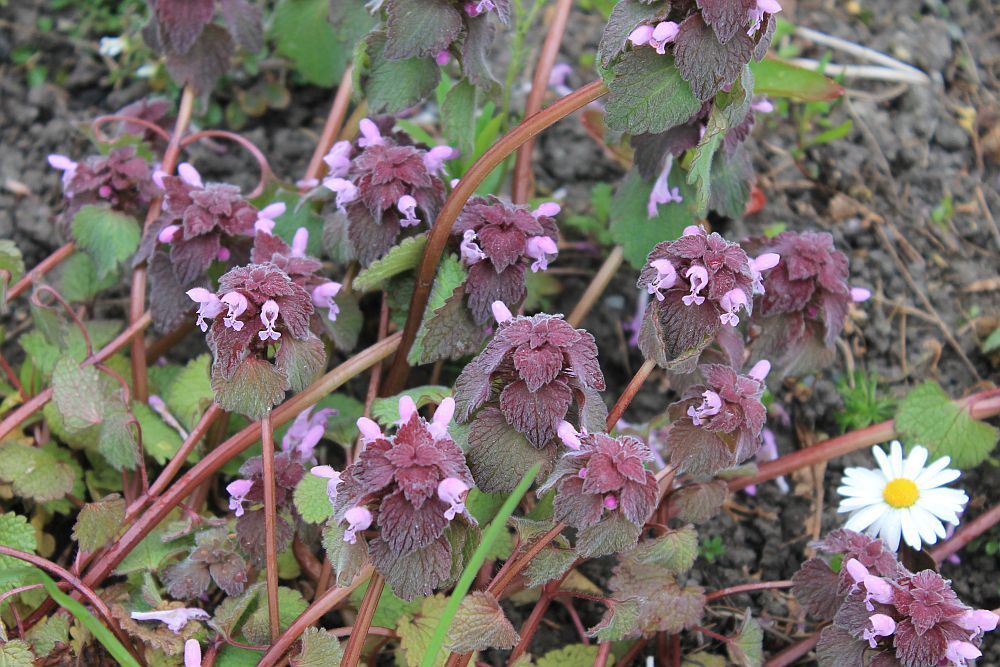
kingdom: Plantae
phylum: Tracheophyta
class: Magnoliopsida
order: Lamiales
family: Lamiaceae
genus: Lamium
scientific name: Lamium purpureum
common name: Red dead-nettle
